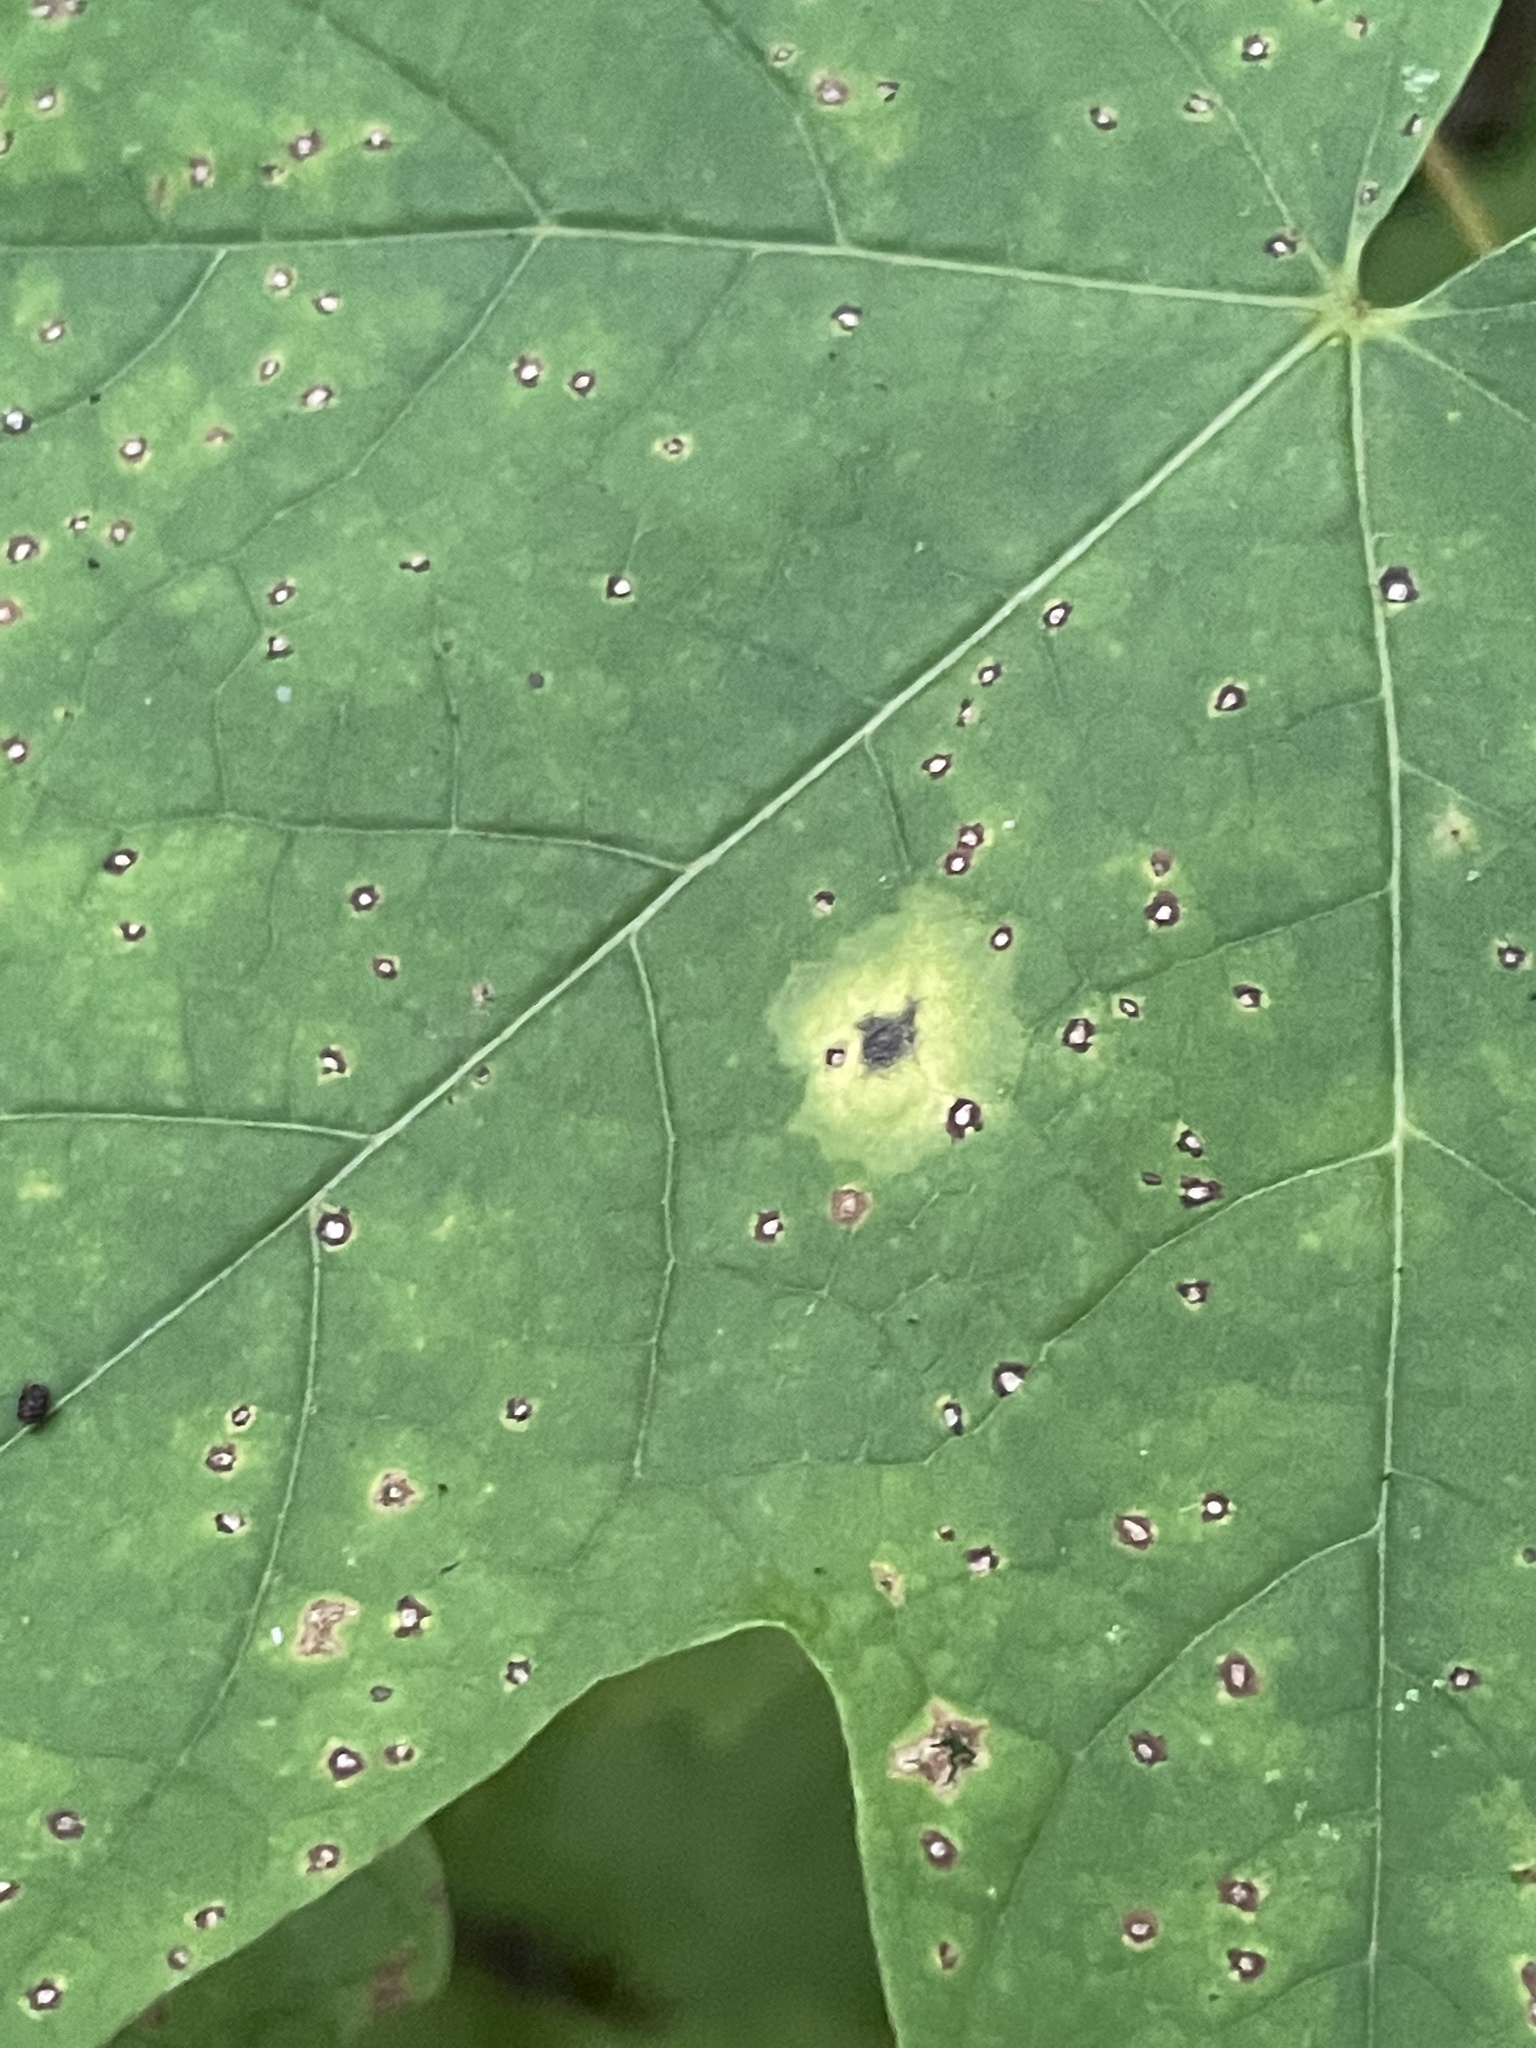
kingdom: Fungi
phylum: Ascomycota
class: Leotiomycetes
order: Rhytismatales
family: Rhytismataceae
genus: Rhytisma
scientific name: Rhytisma acerinum
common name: European tar spot
